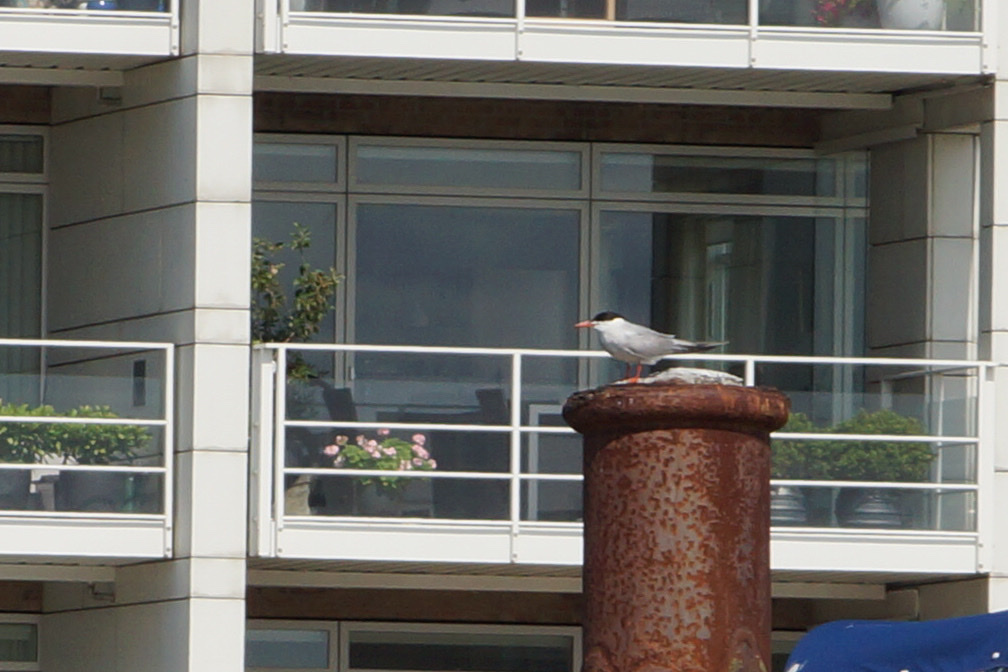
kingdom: Animalia
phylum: Chordata
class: Aves
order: Charadriiformes
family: Laridae
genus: Sterna
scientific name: Sterna paradisaea
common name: Arctic tern
